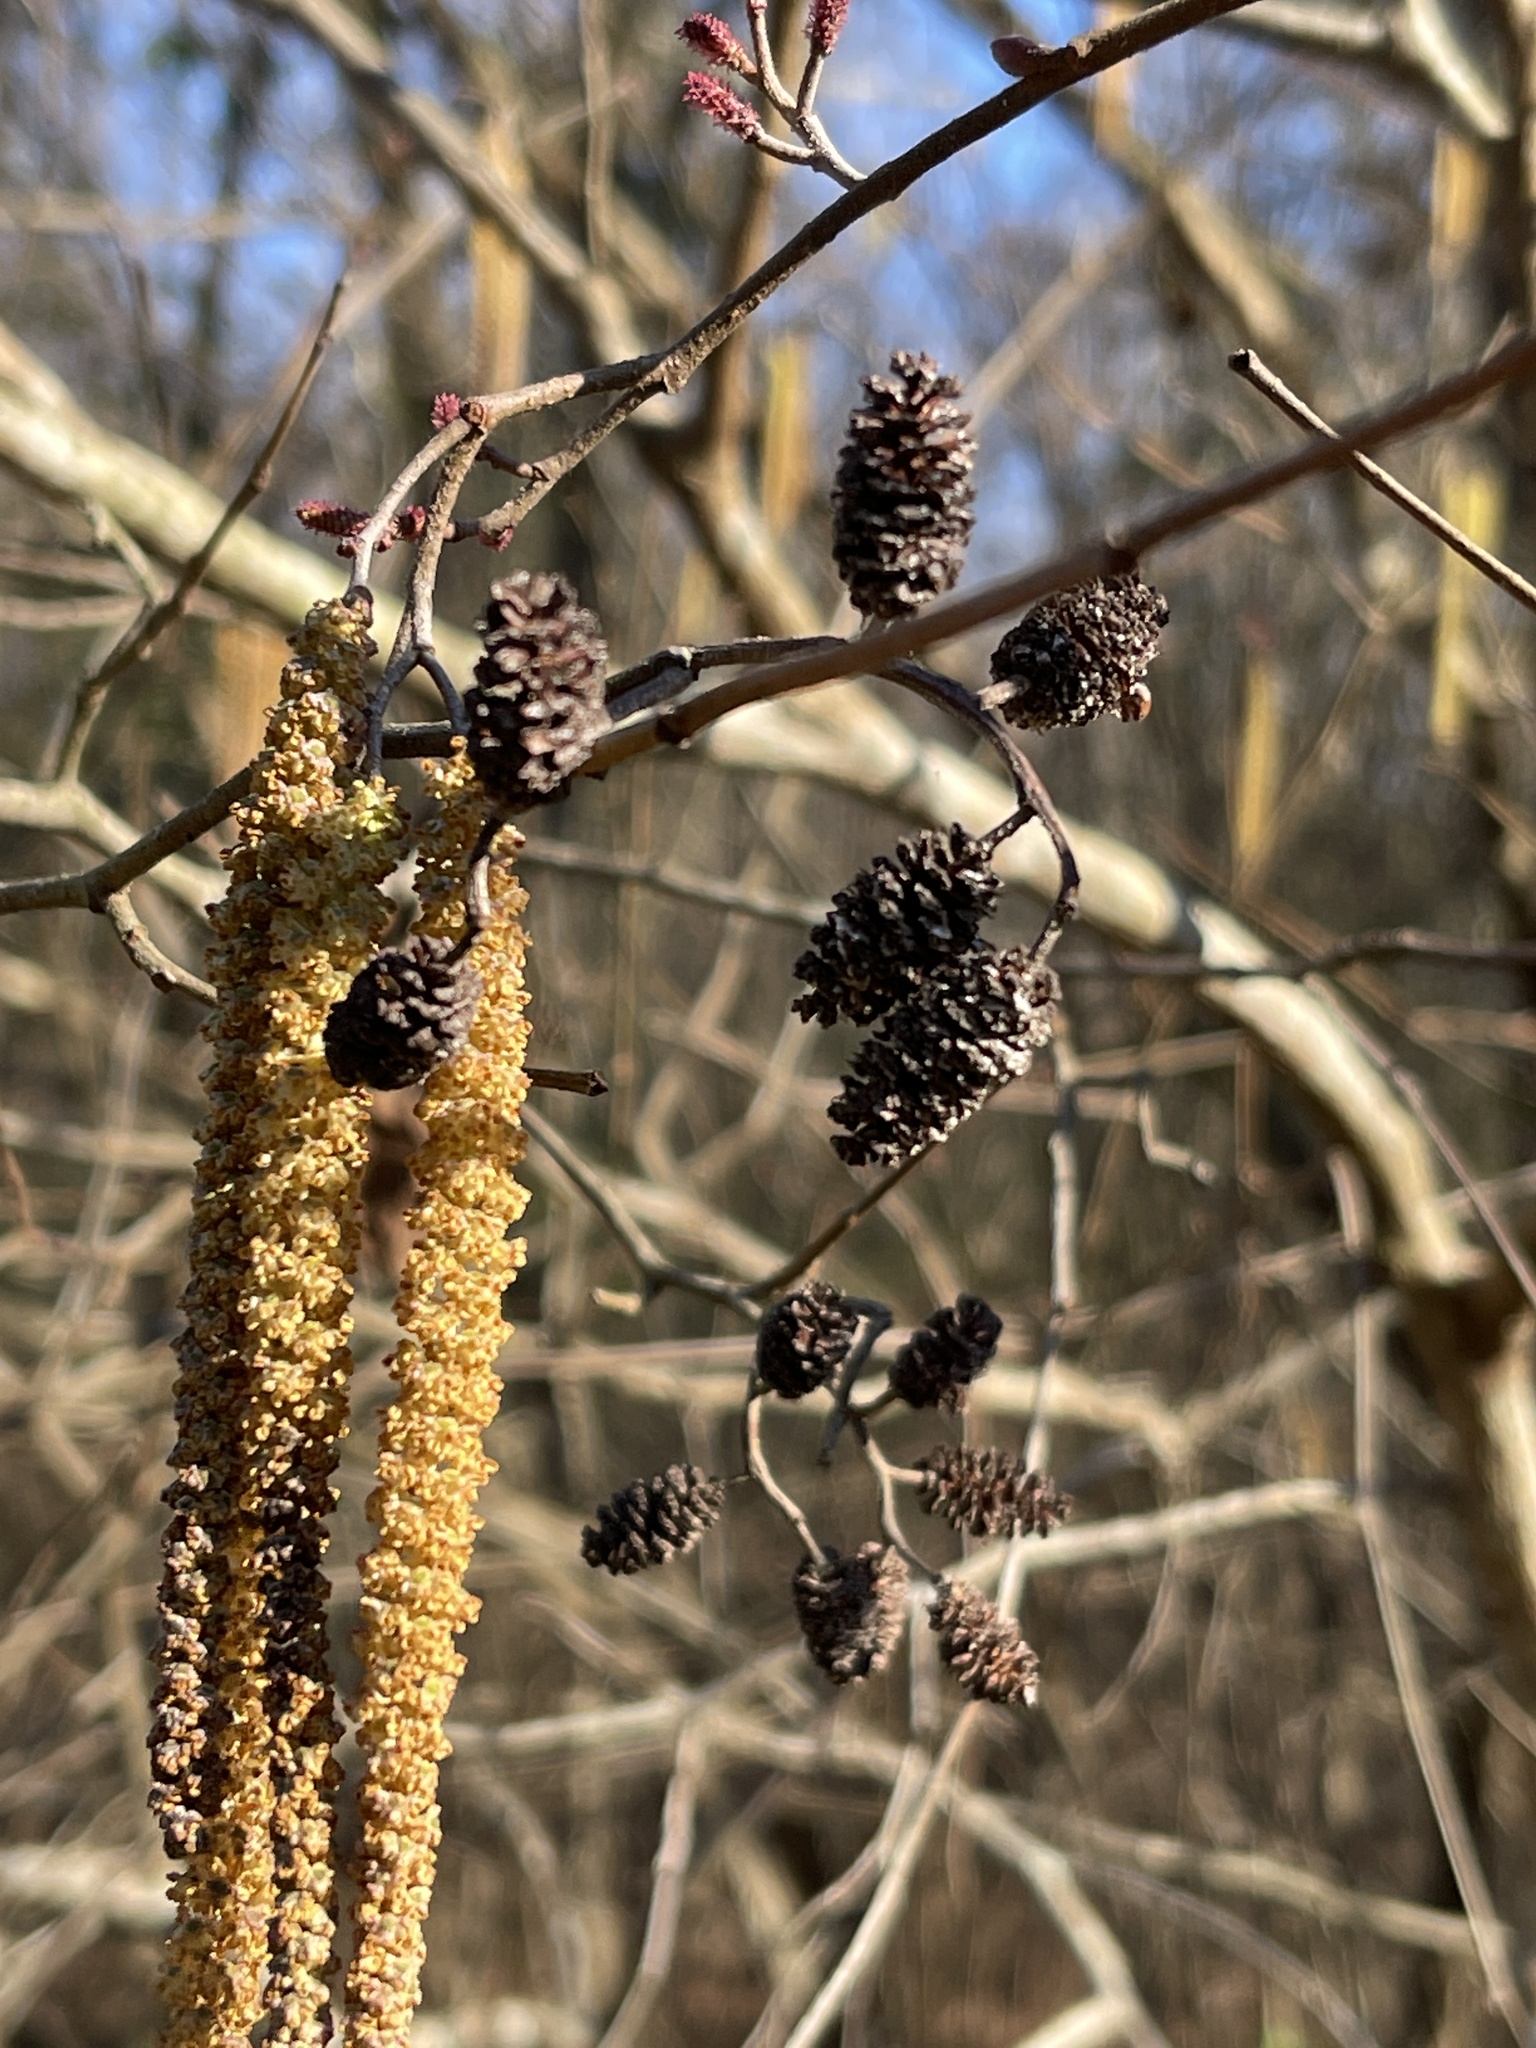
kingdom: Plantae
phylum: Tracheophyta
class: Magnoliopsida
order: Fagales
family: Betulaceae
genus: Alnus
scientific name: Alnus serrulata
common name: Hazel alder
